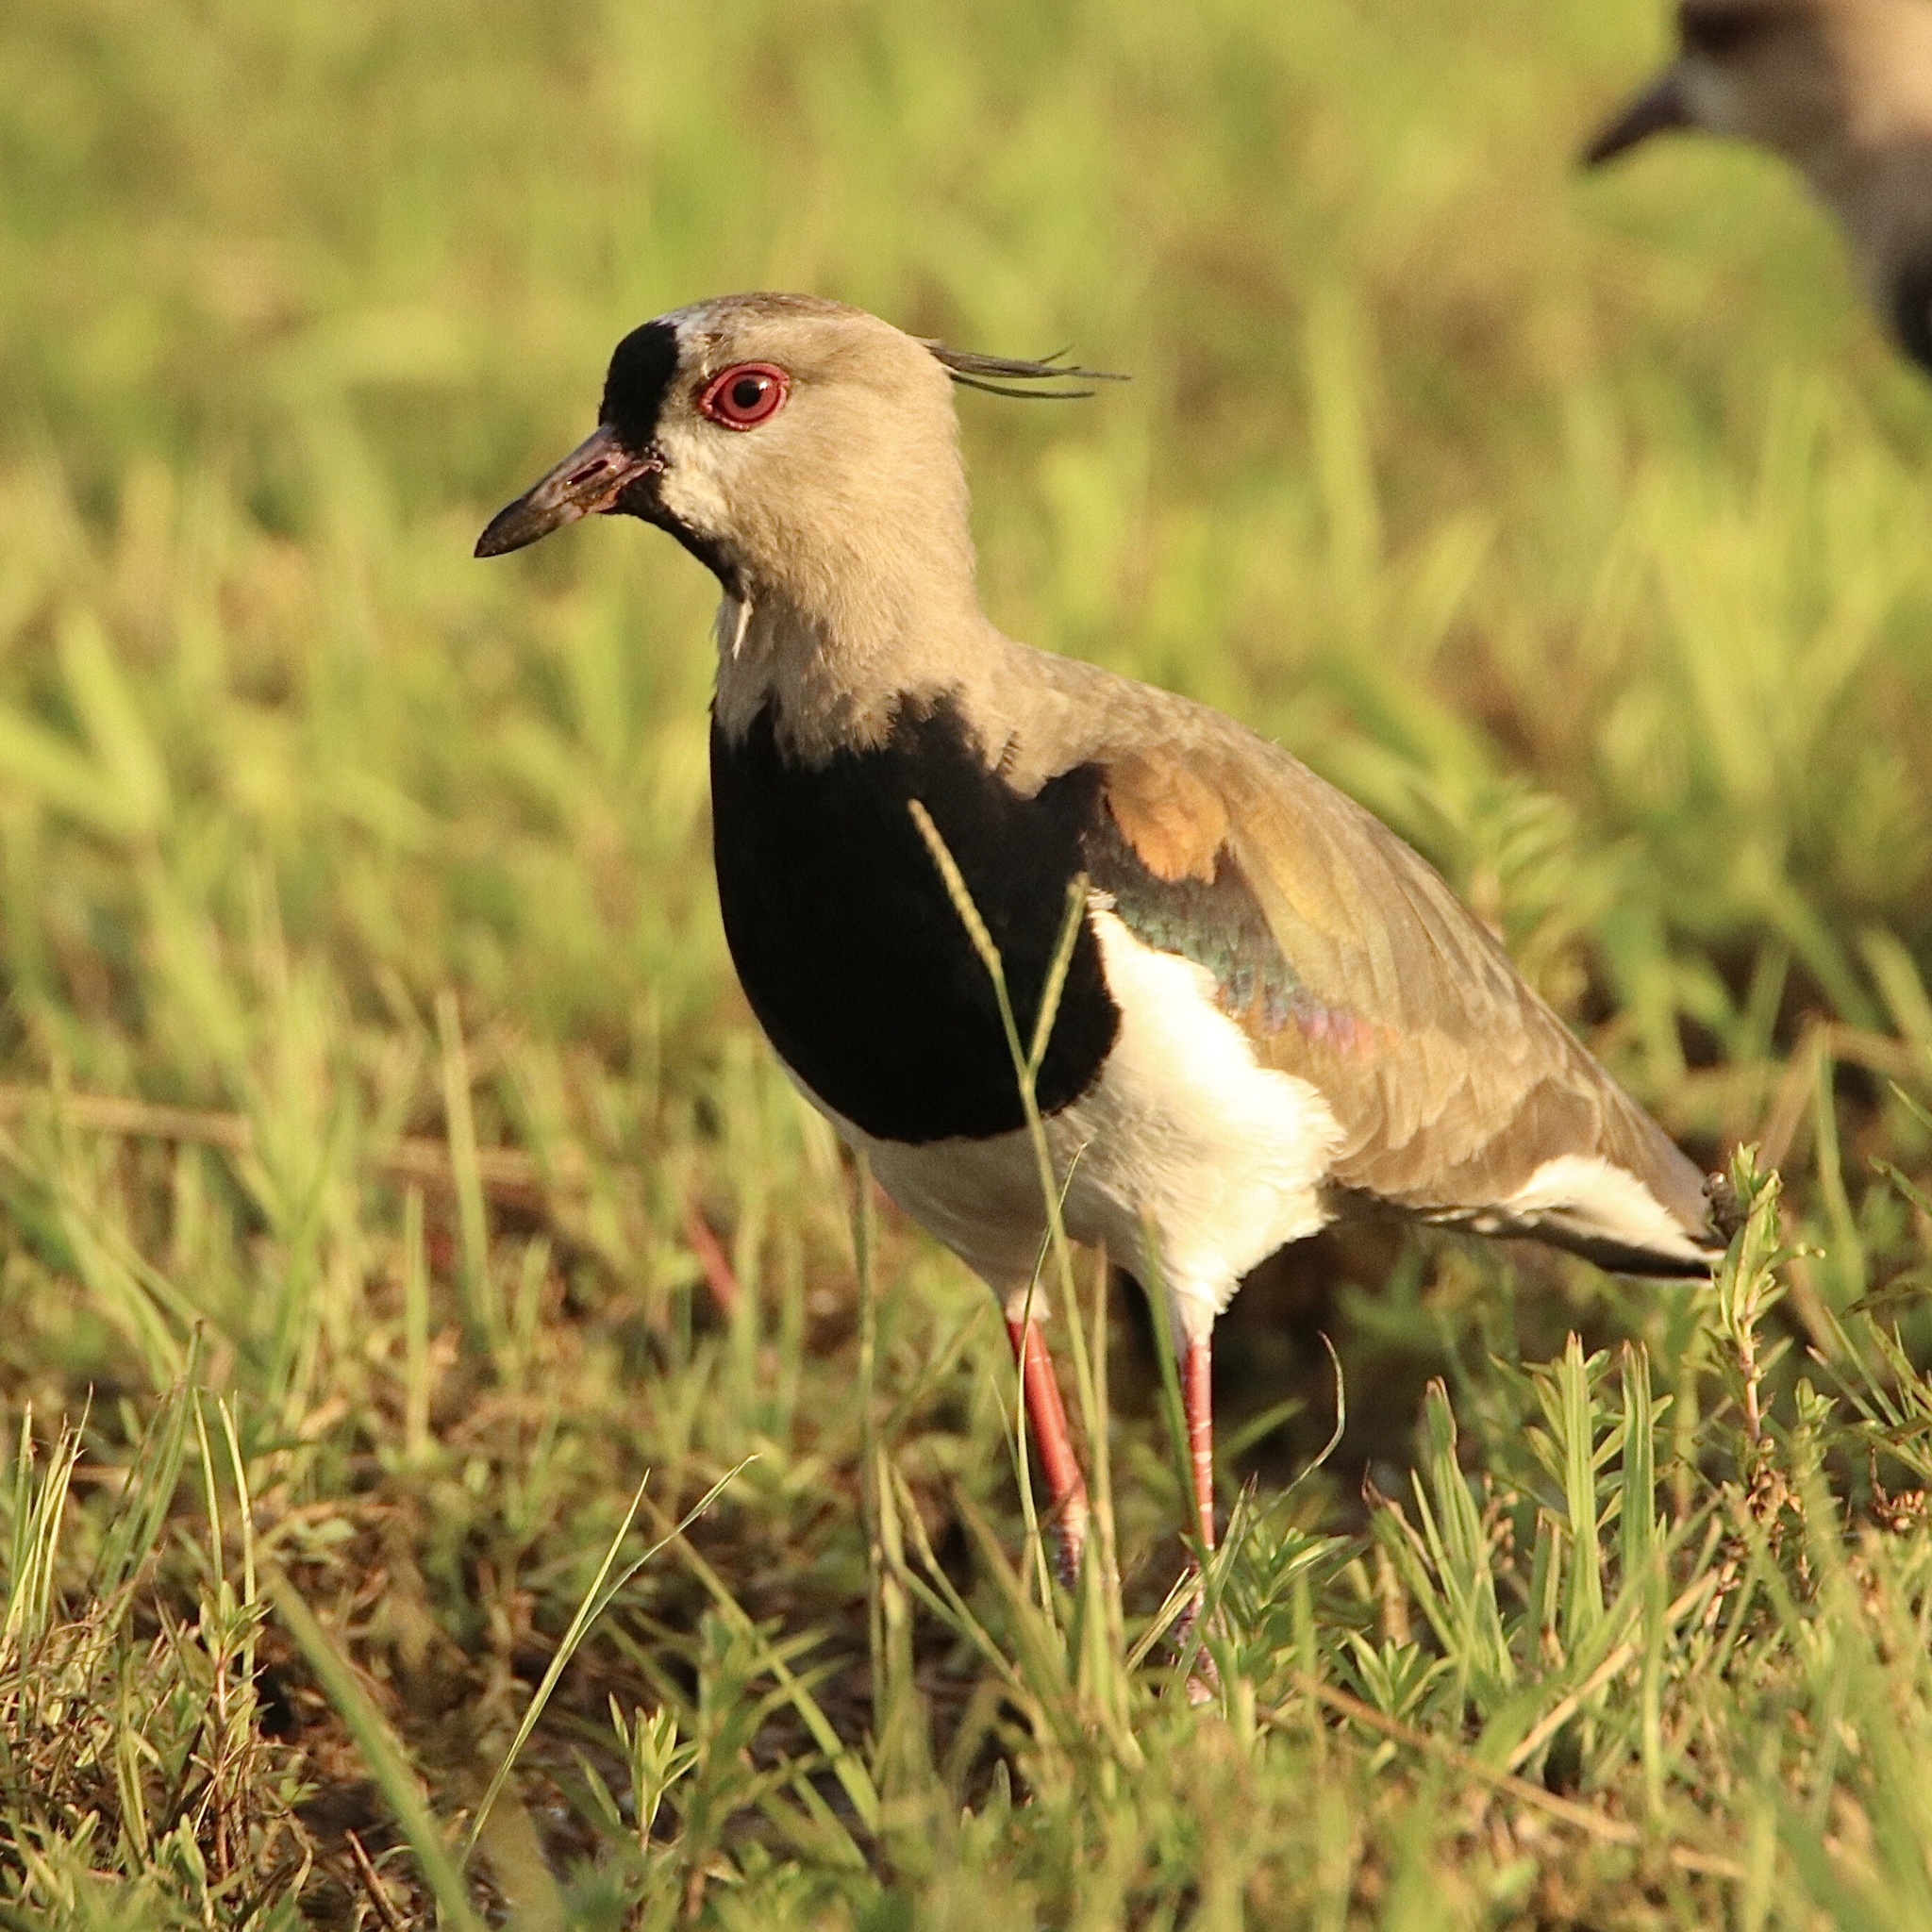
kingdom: Animalia
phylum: Chordata
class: Aves
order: Charadriiformes
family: Charadriidae
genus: Vanellus
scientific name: Vanellus chilensis
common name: Southern lapwing
